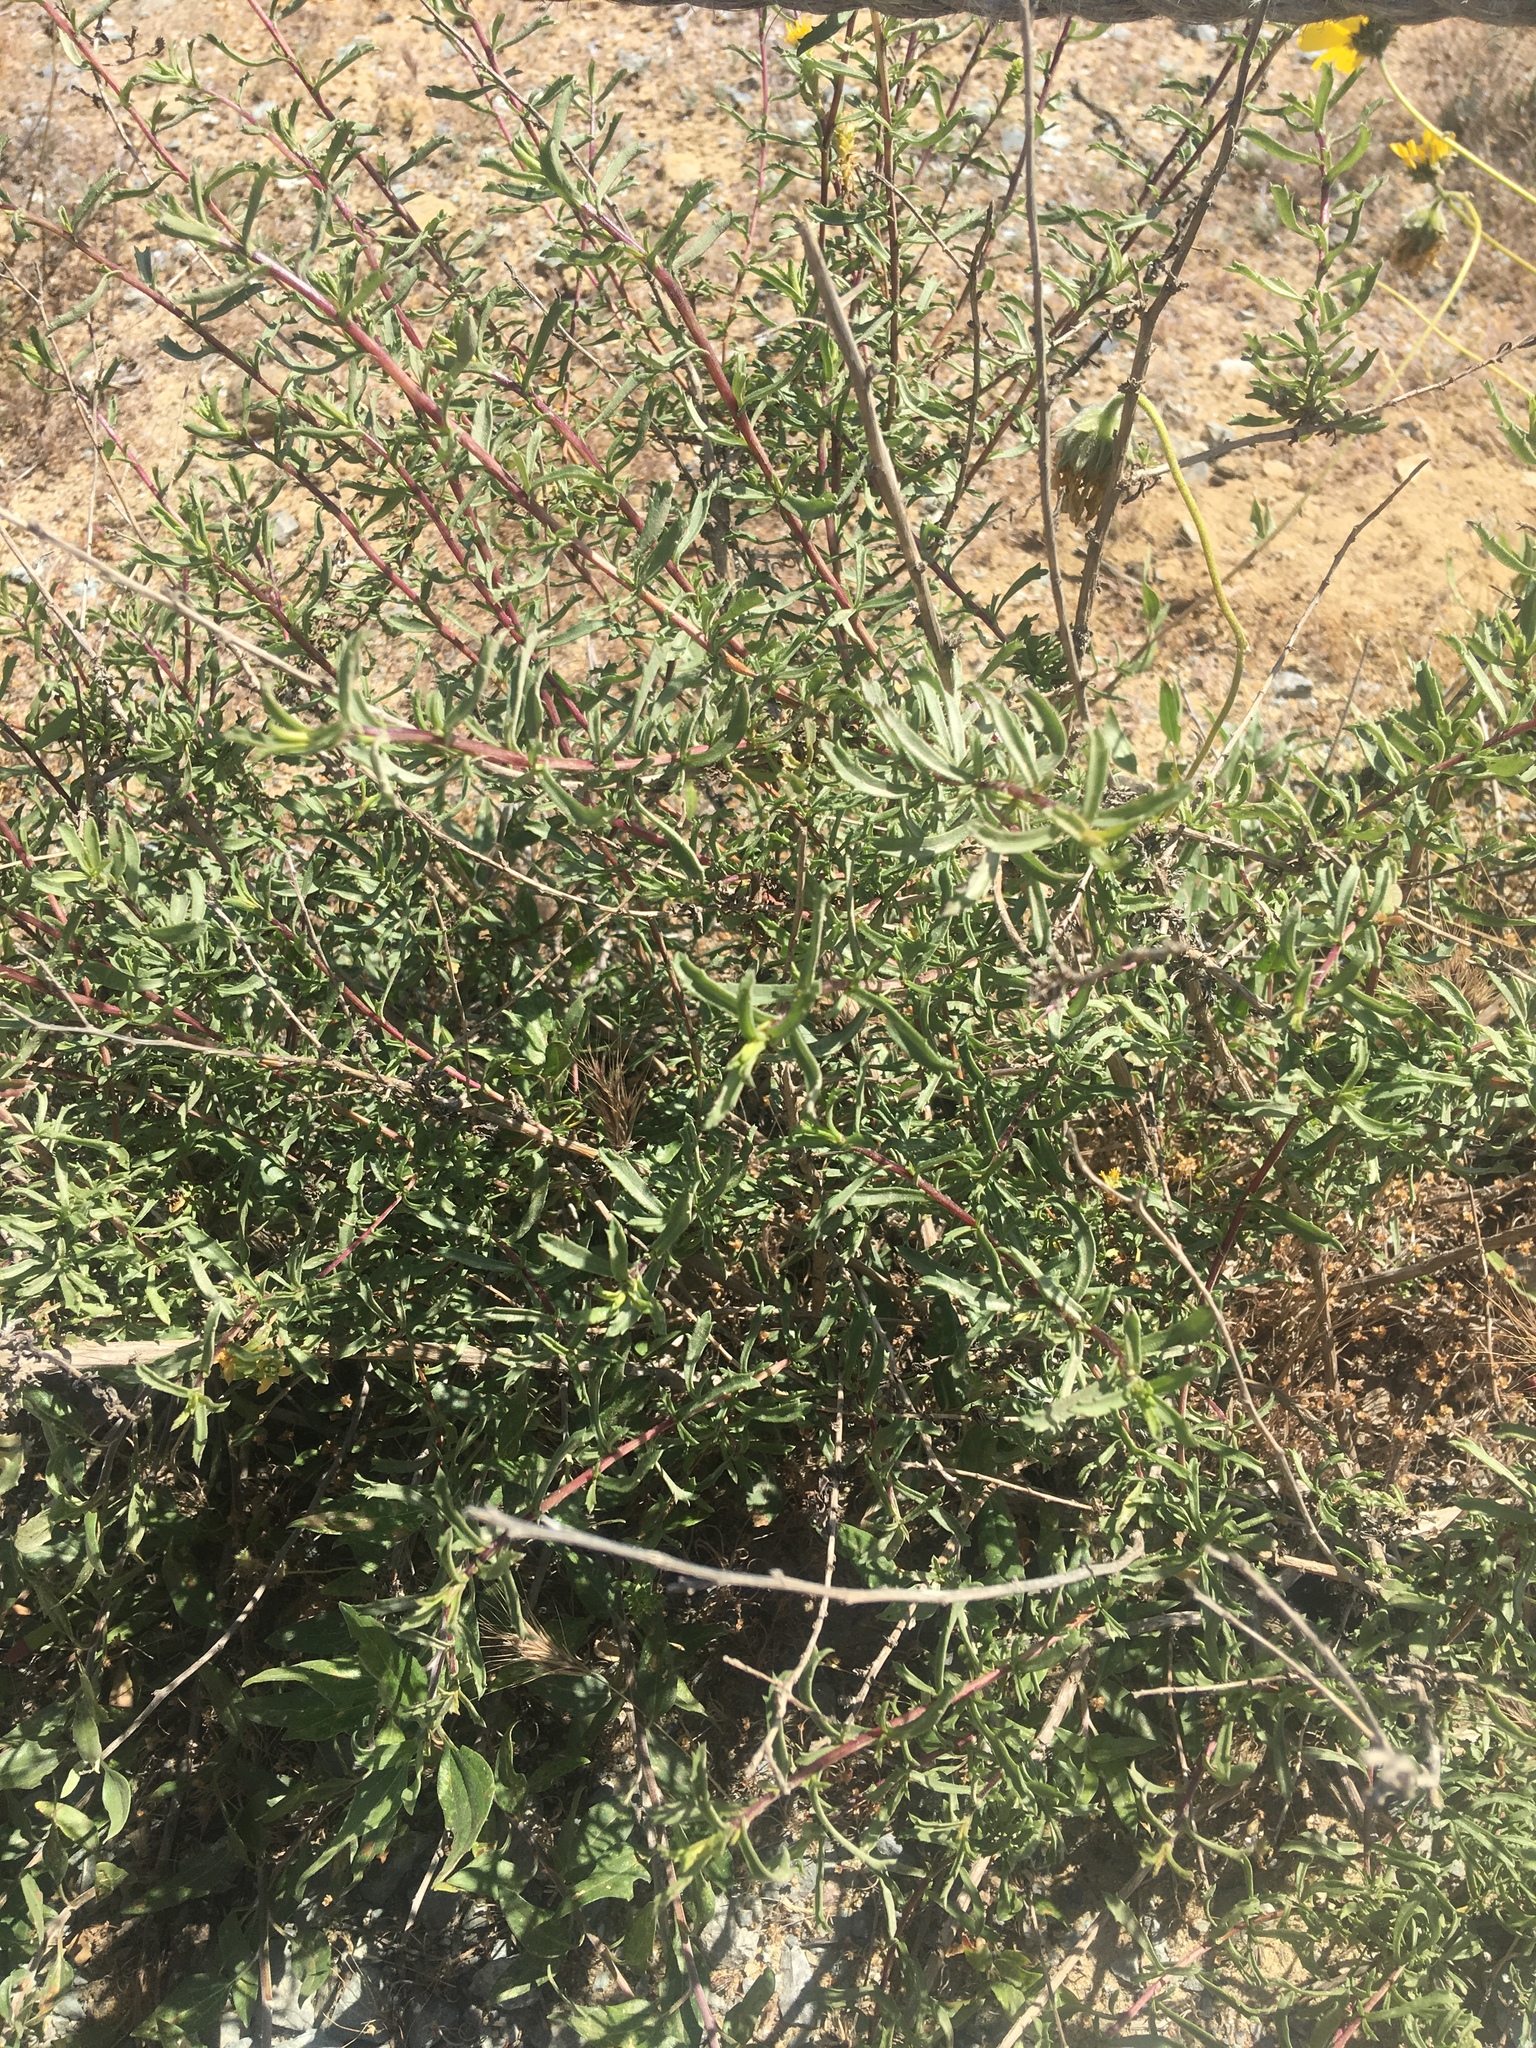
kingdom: Plantae
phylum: Tracheophyta
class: Magnoliopsida
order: Asterales
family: Asteraceae
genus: Isocoma
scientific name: Isocoma menziesii
